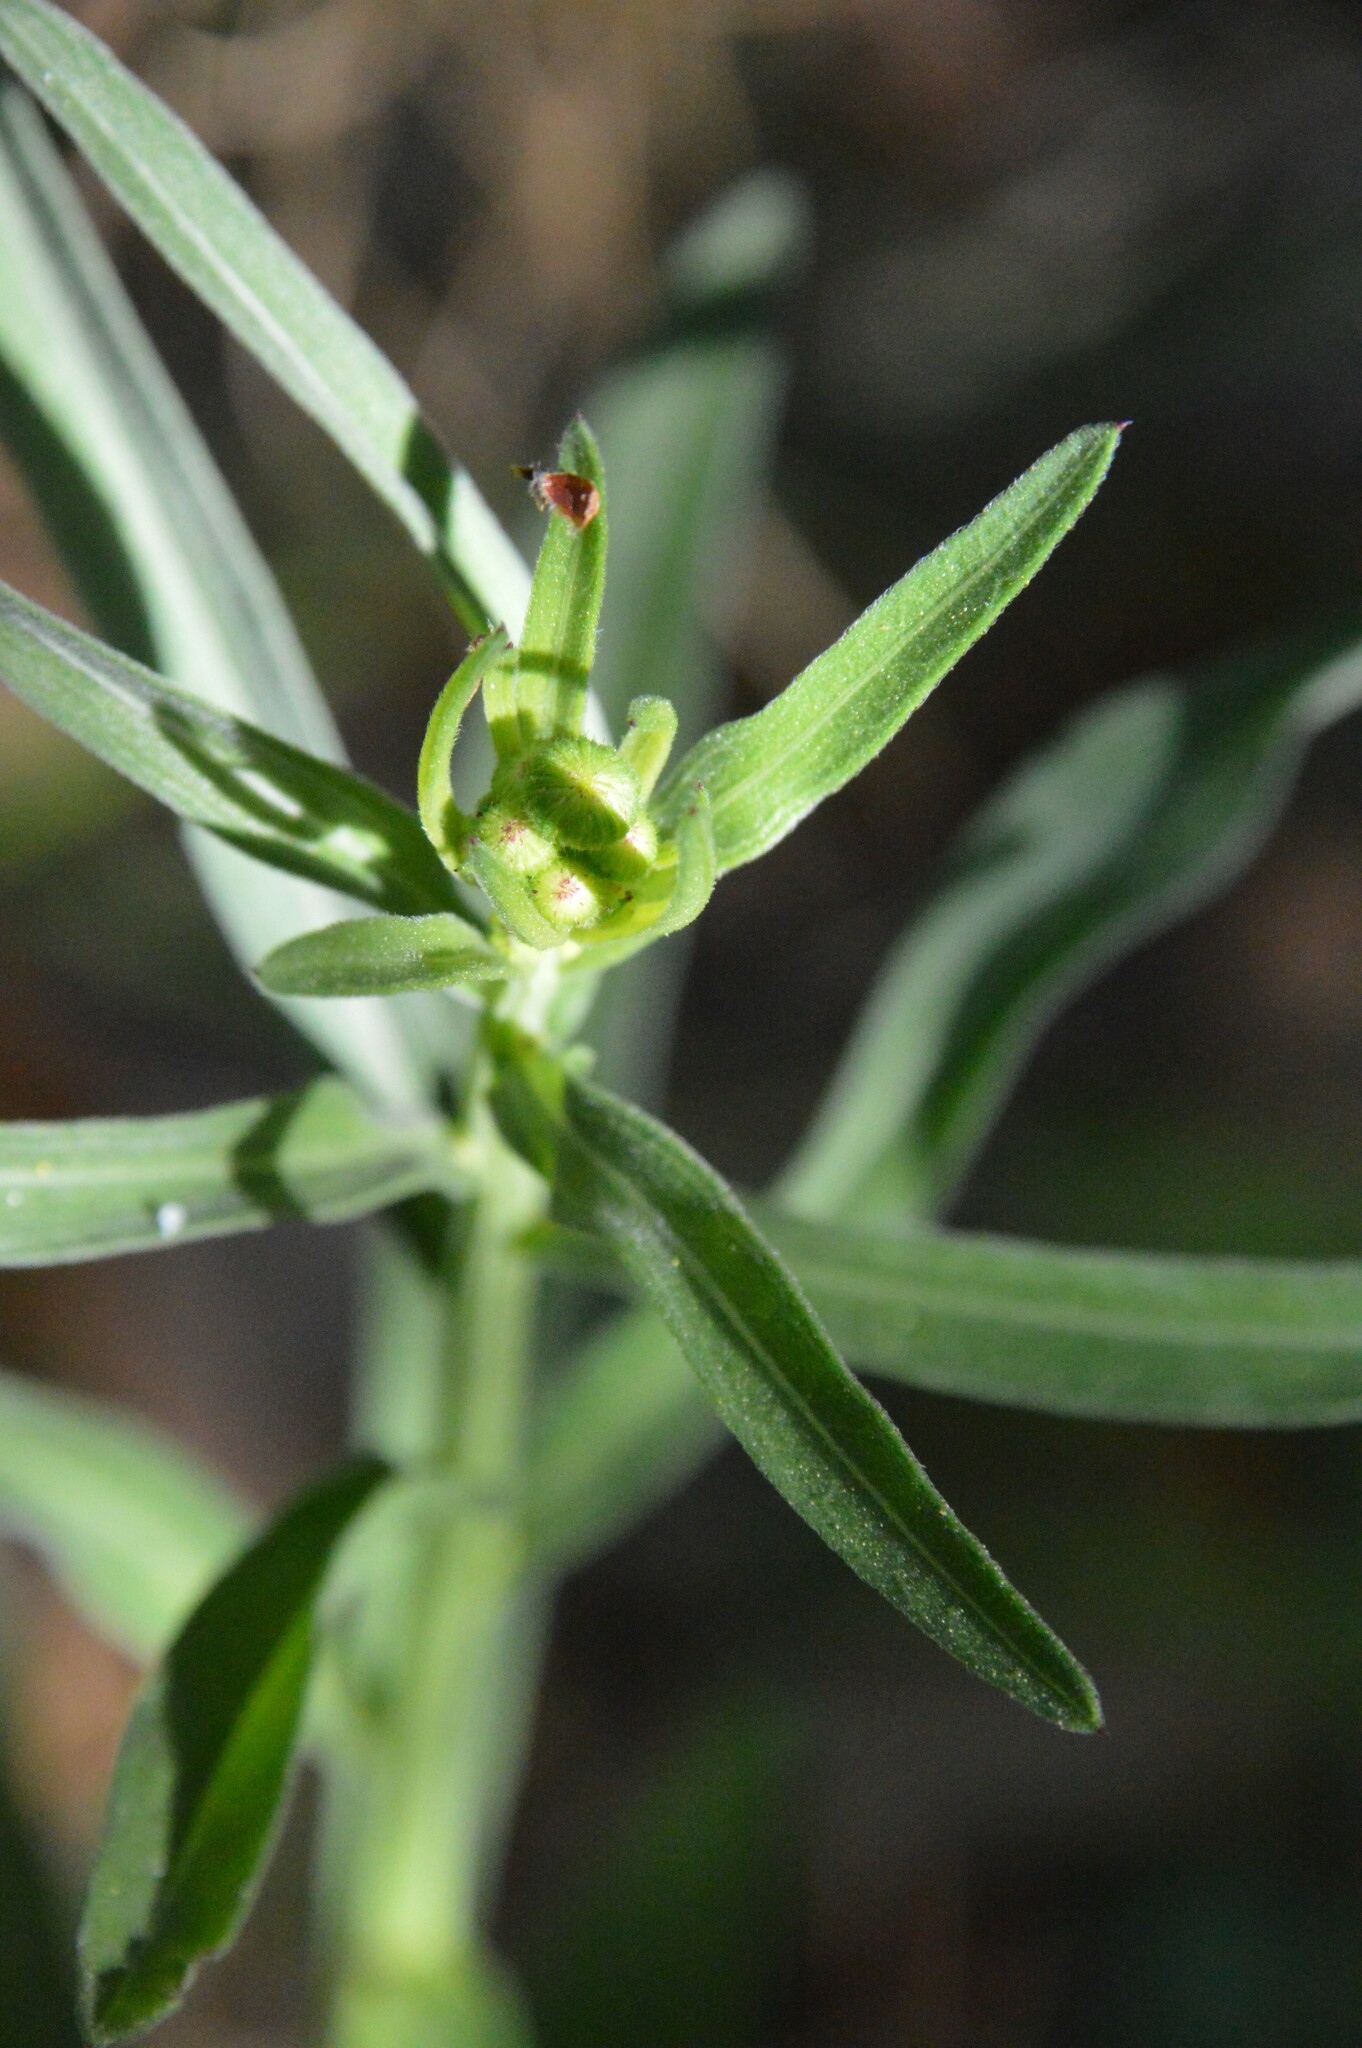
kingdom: Plantae
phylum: Tracheophyta
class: Magnoliopsida
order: Asterales
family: Asteraceae
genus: Erigeron
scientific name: Erigeron strigosus
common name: Common eastern fleabane
